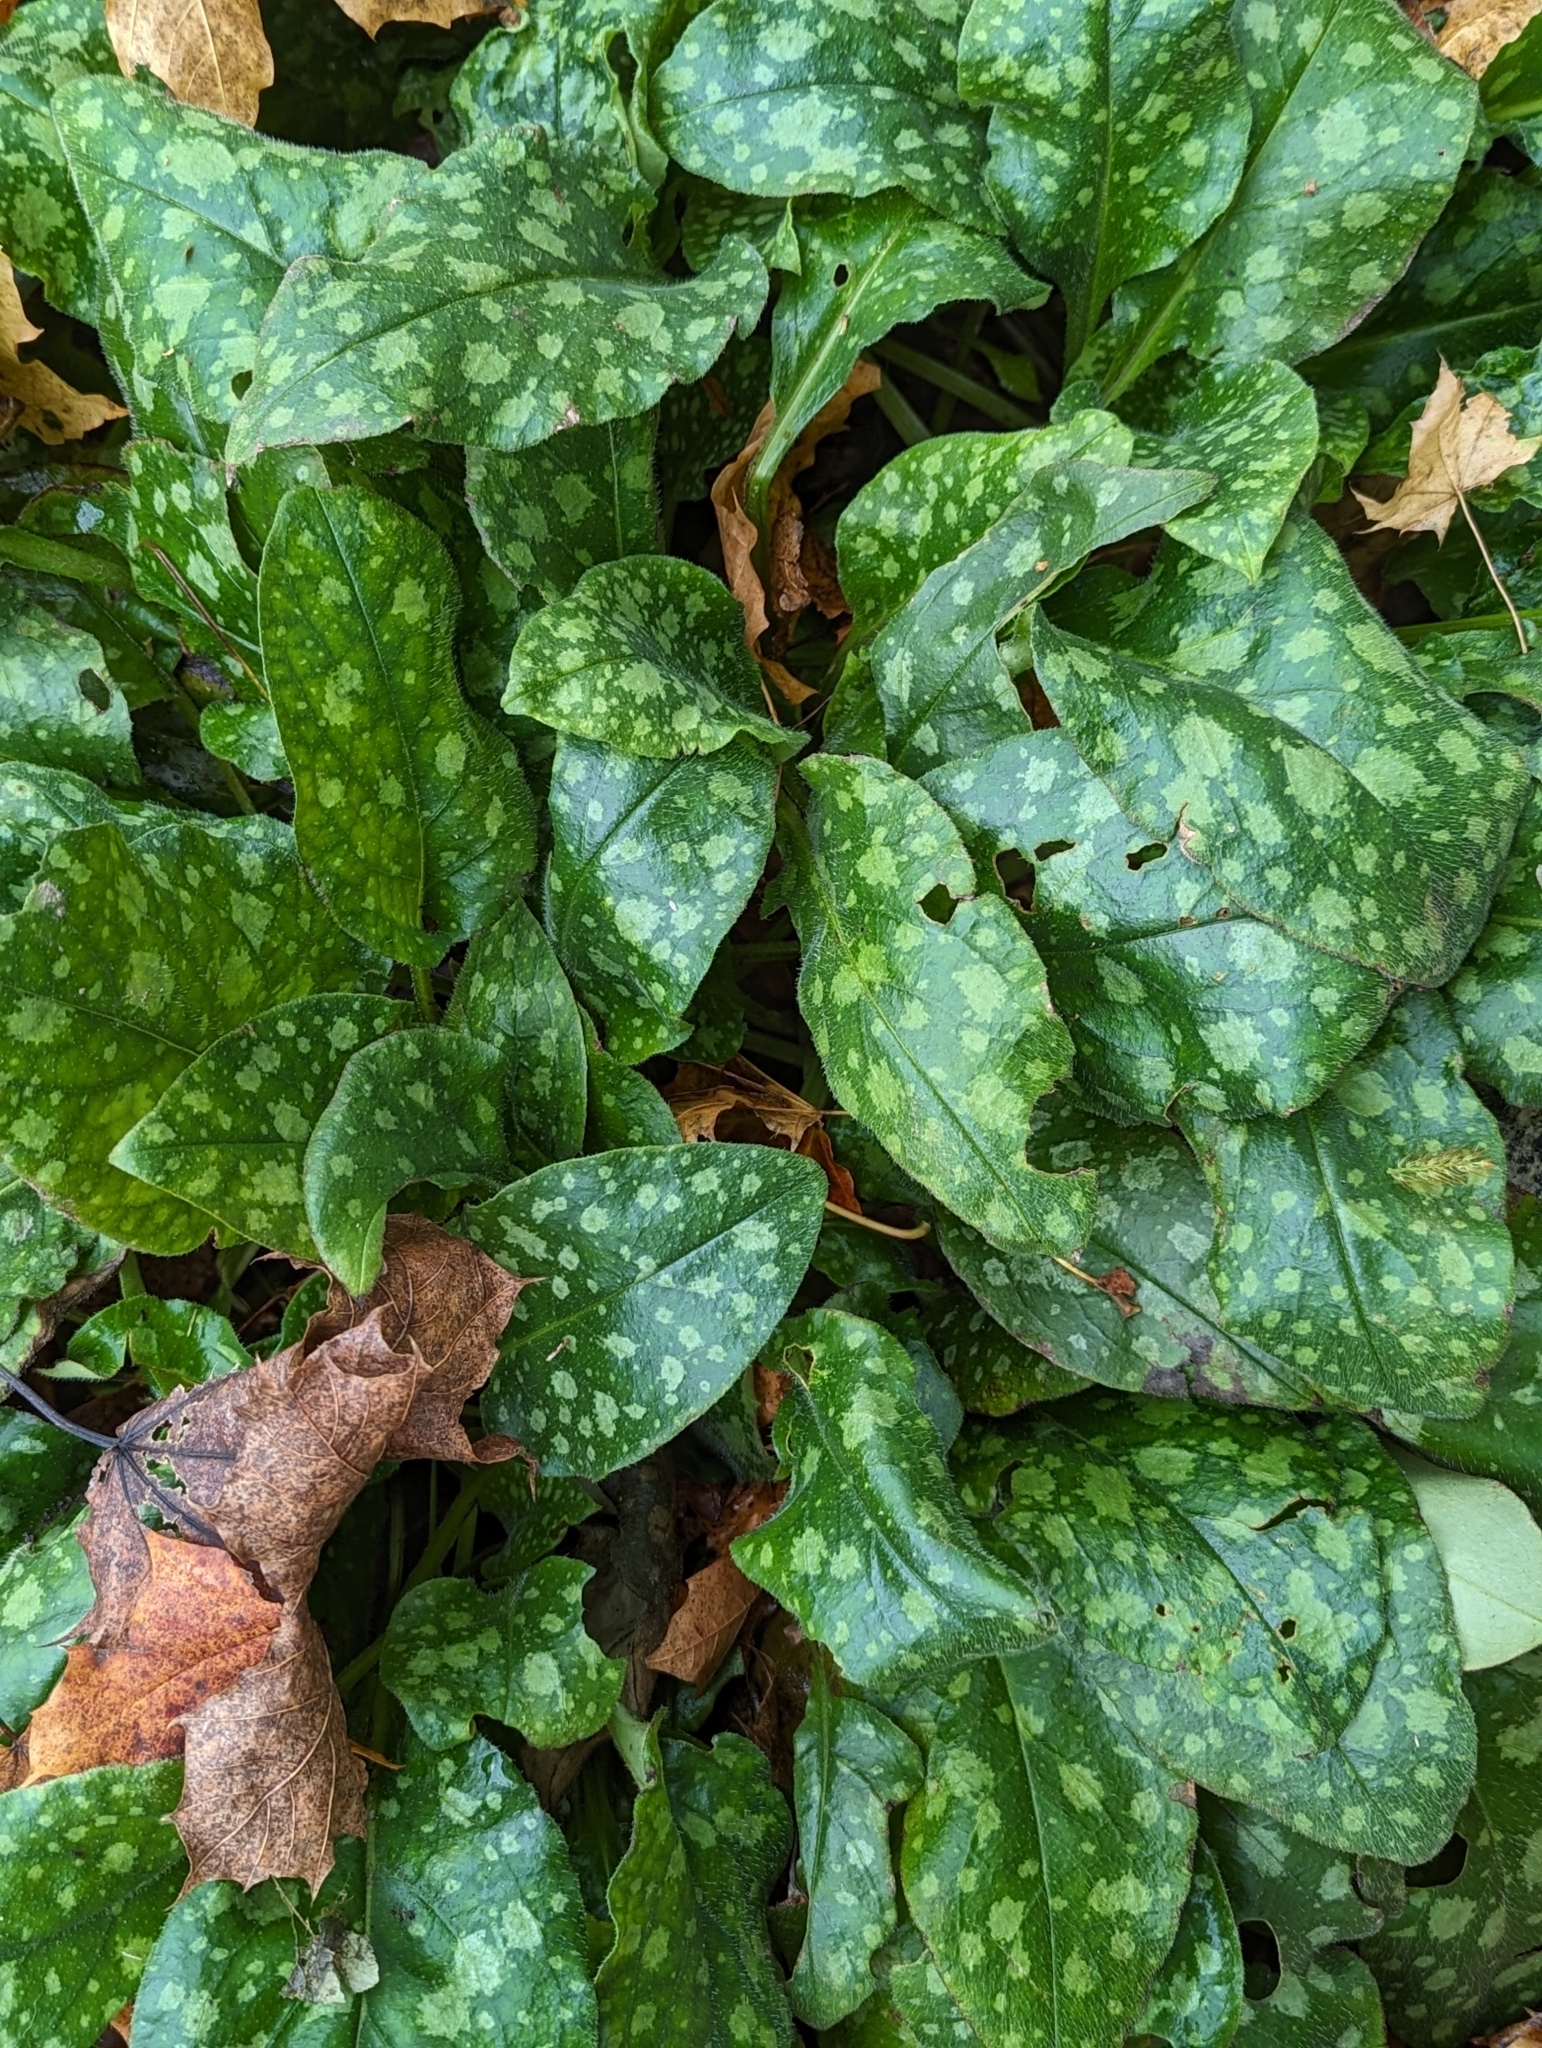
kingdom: Plantae
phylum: Tracheophyta
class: Magnoliopsida
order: Boraginales
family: Boraginaceae
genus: Pulmonaria
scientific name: Pulmonaria
